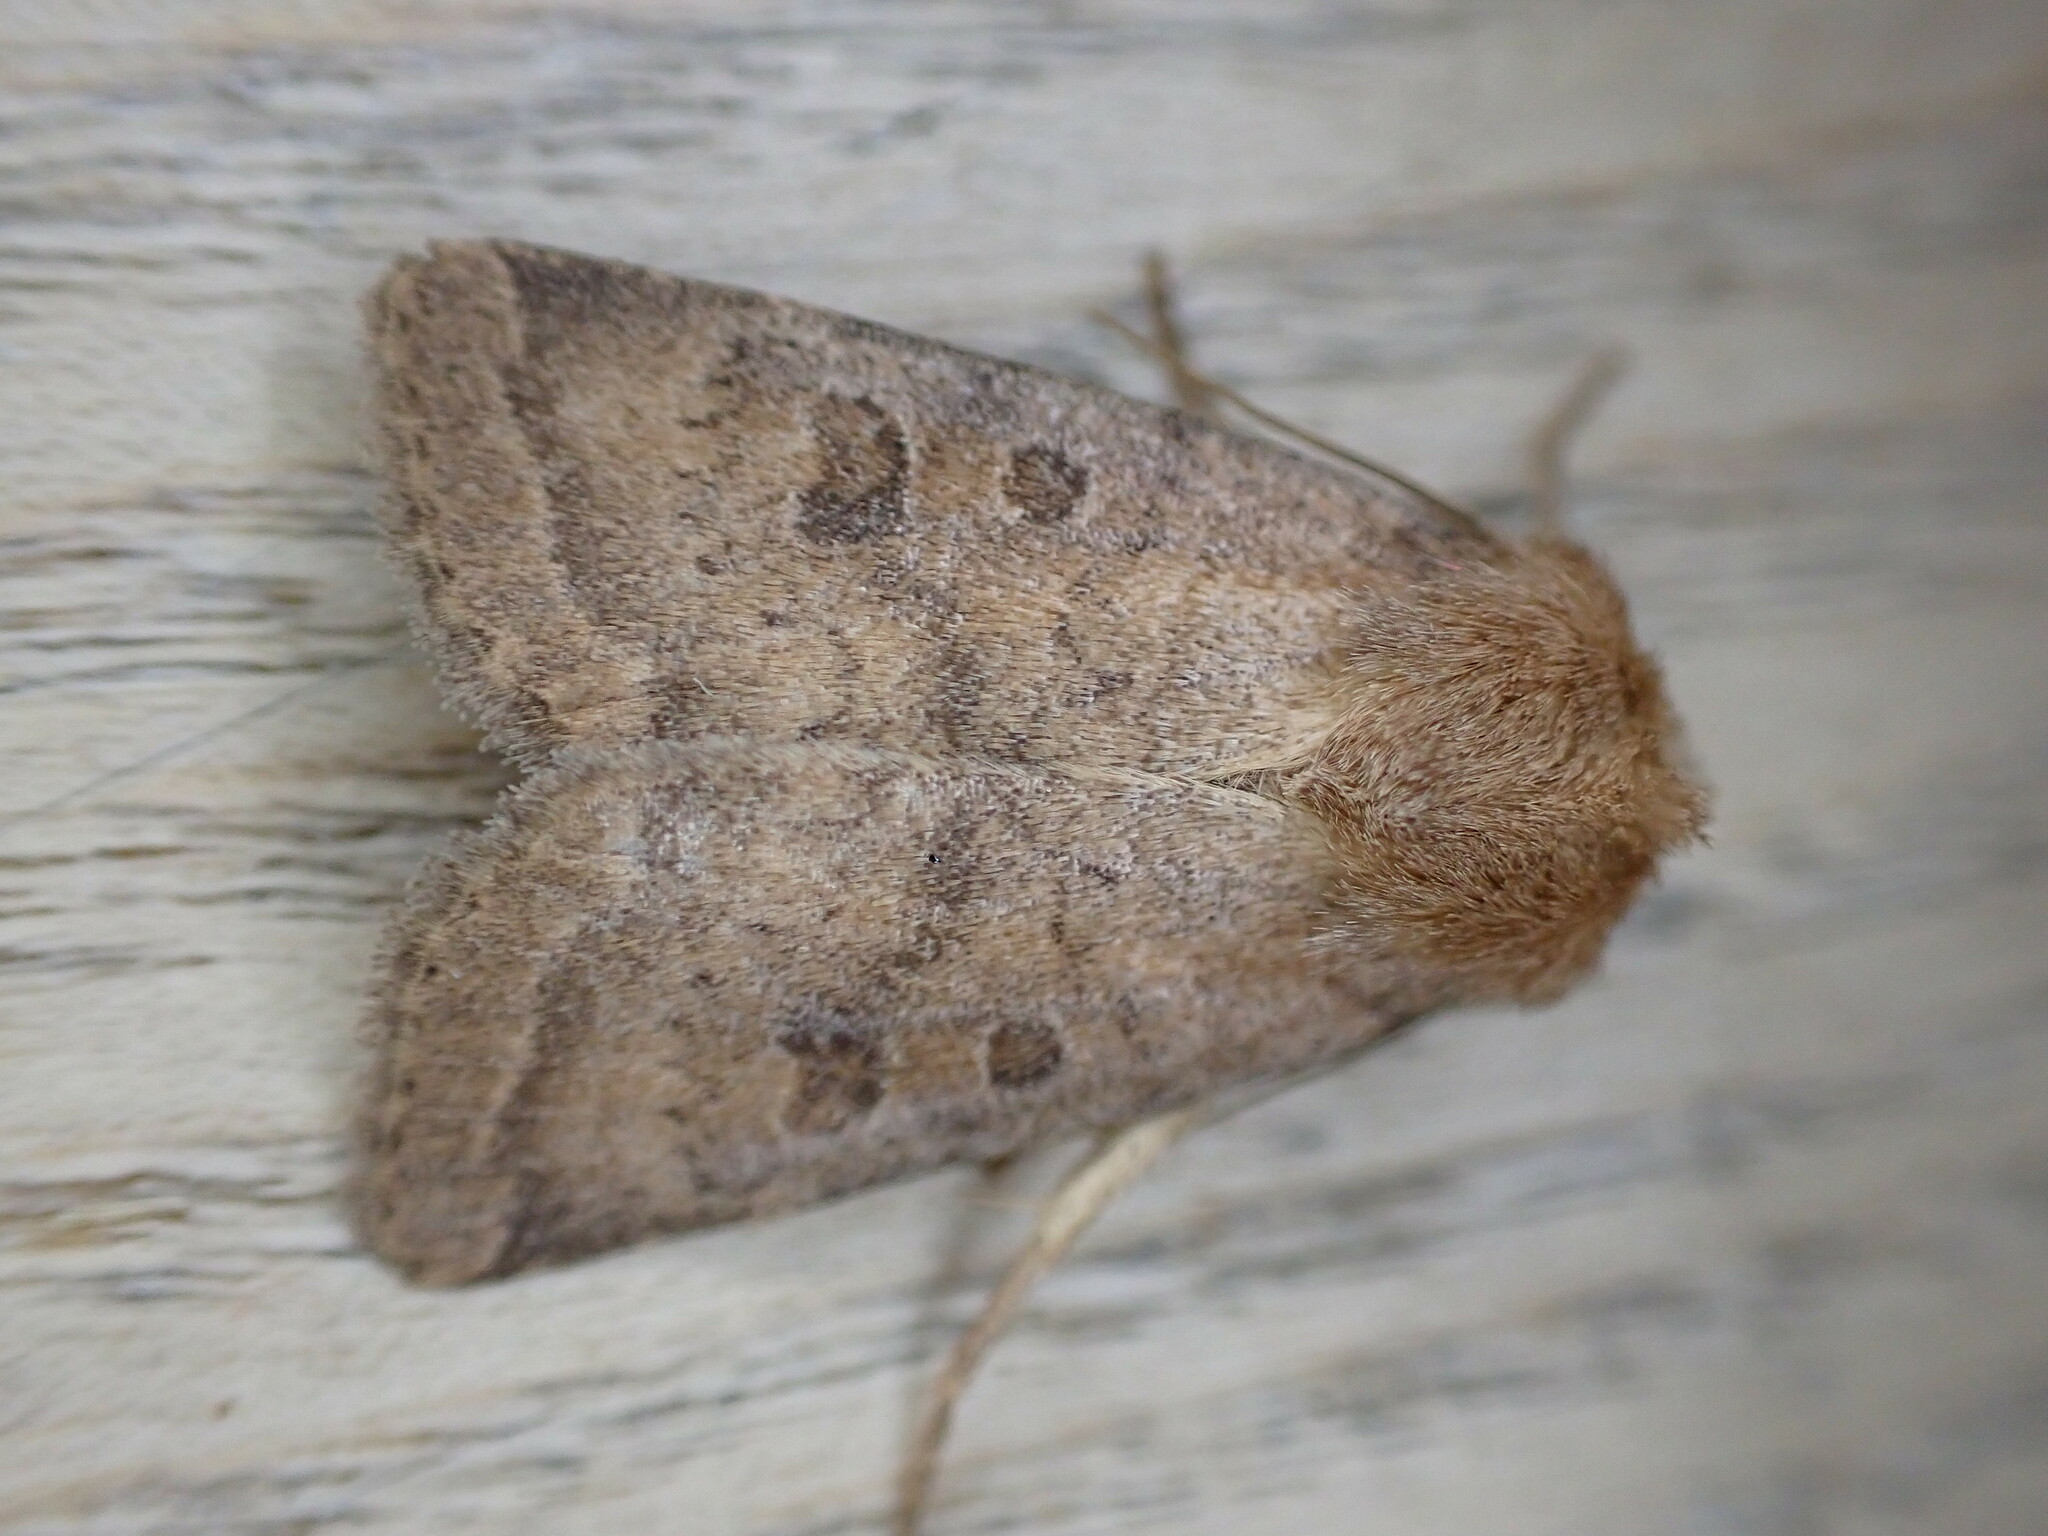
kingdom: Animalia
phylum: Arthropoda
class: Insecta
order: Lepidoptera
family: Noctuidae
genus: Hoplodrina
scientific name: Hoplodrina octogenaria
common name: Uncertain
